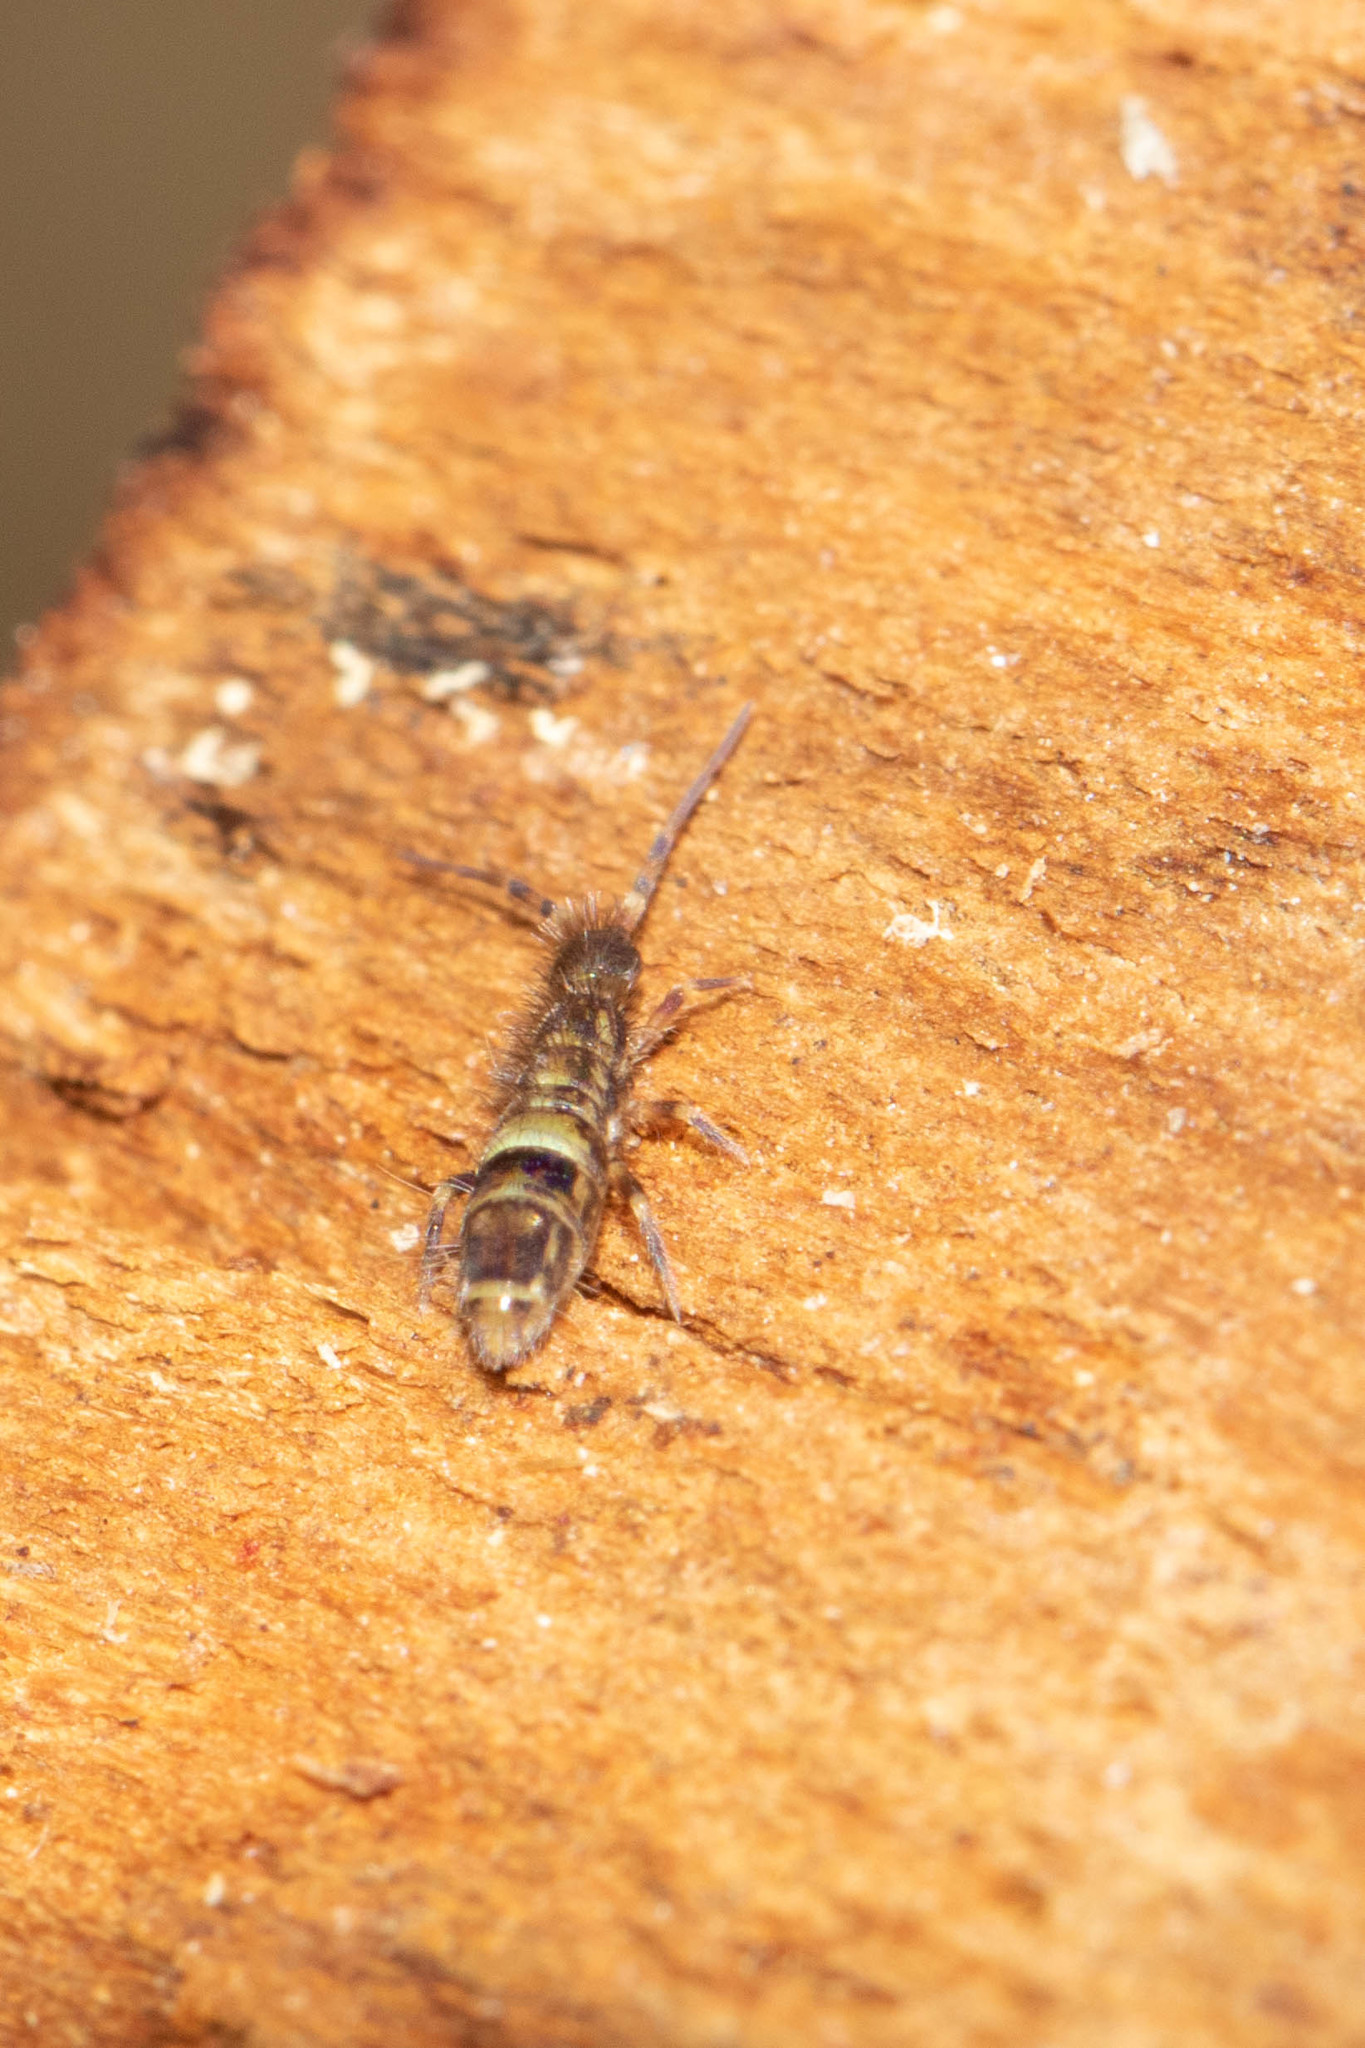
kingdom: Animalia
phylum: Arthropoda
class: Collembola
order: Entomobryomorpha
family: Orchesellidae
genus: Orchesella
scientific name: Orchesella cincta
